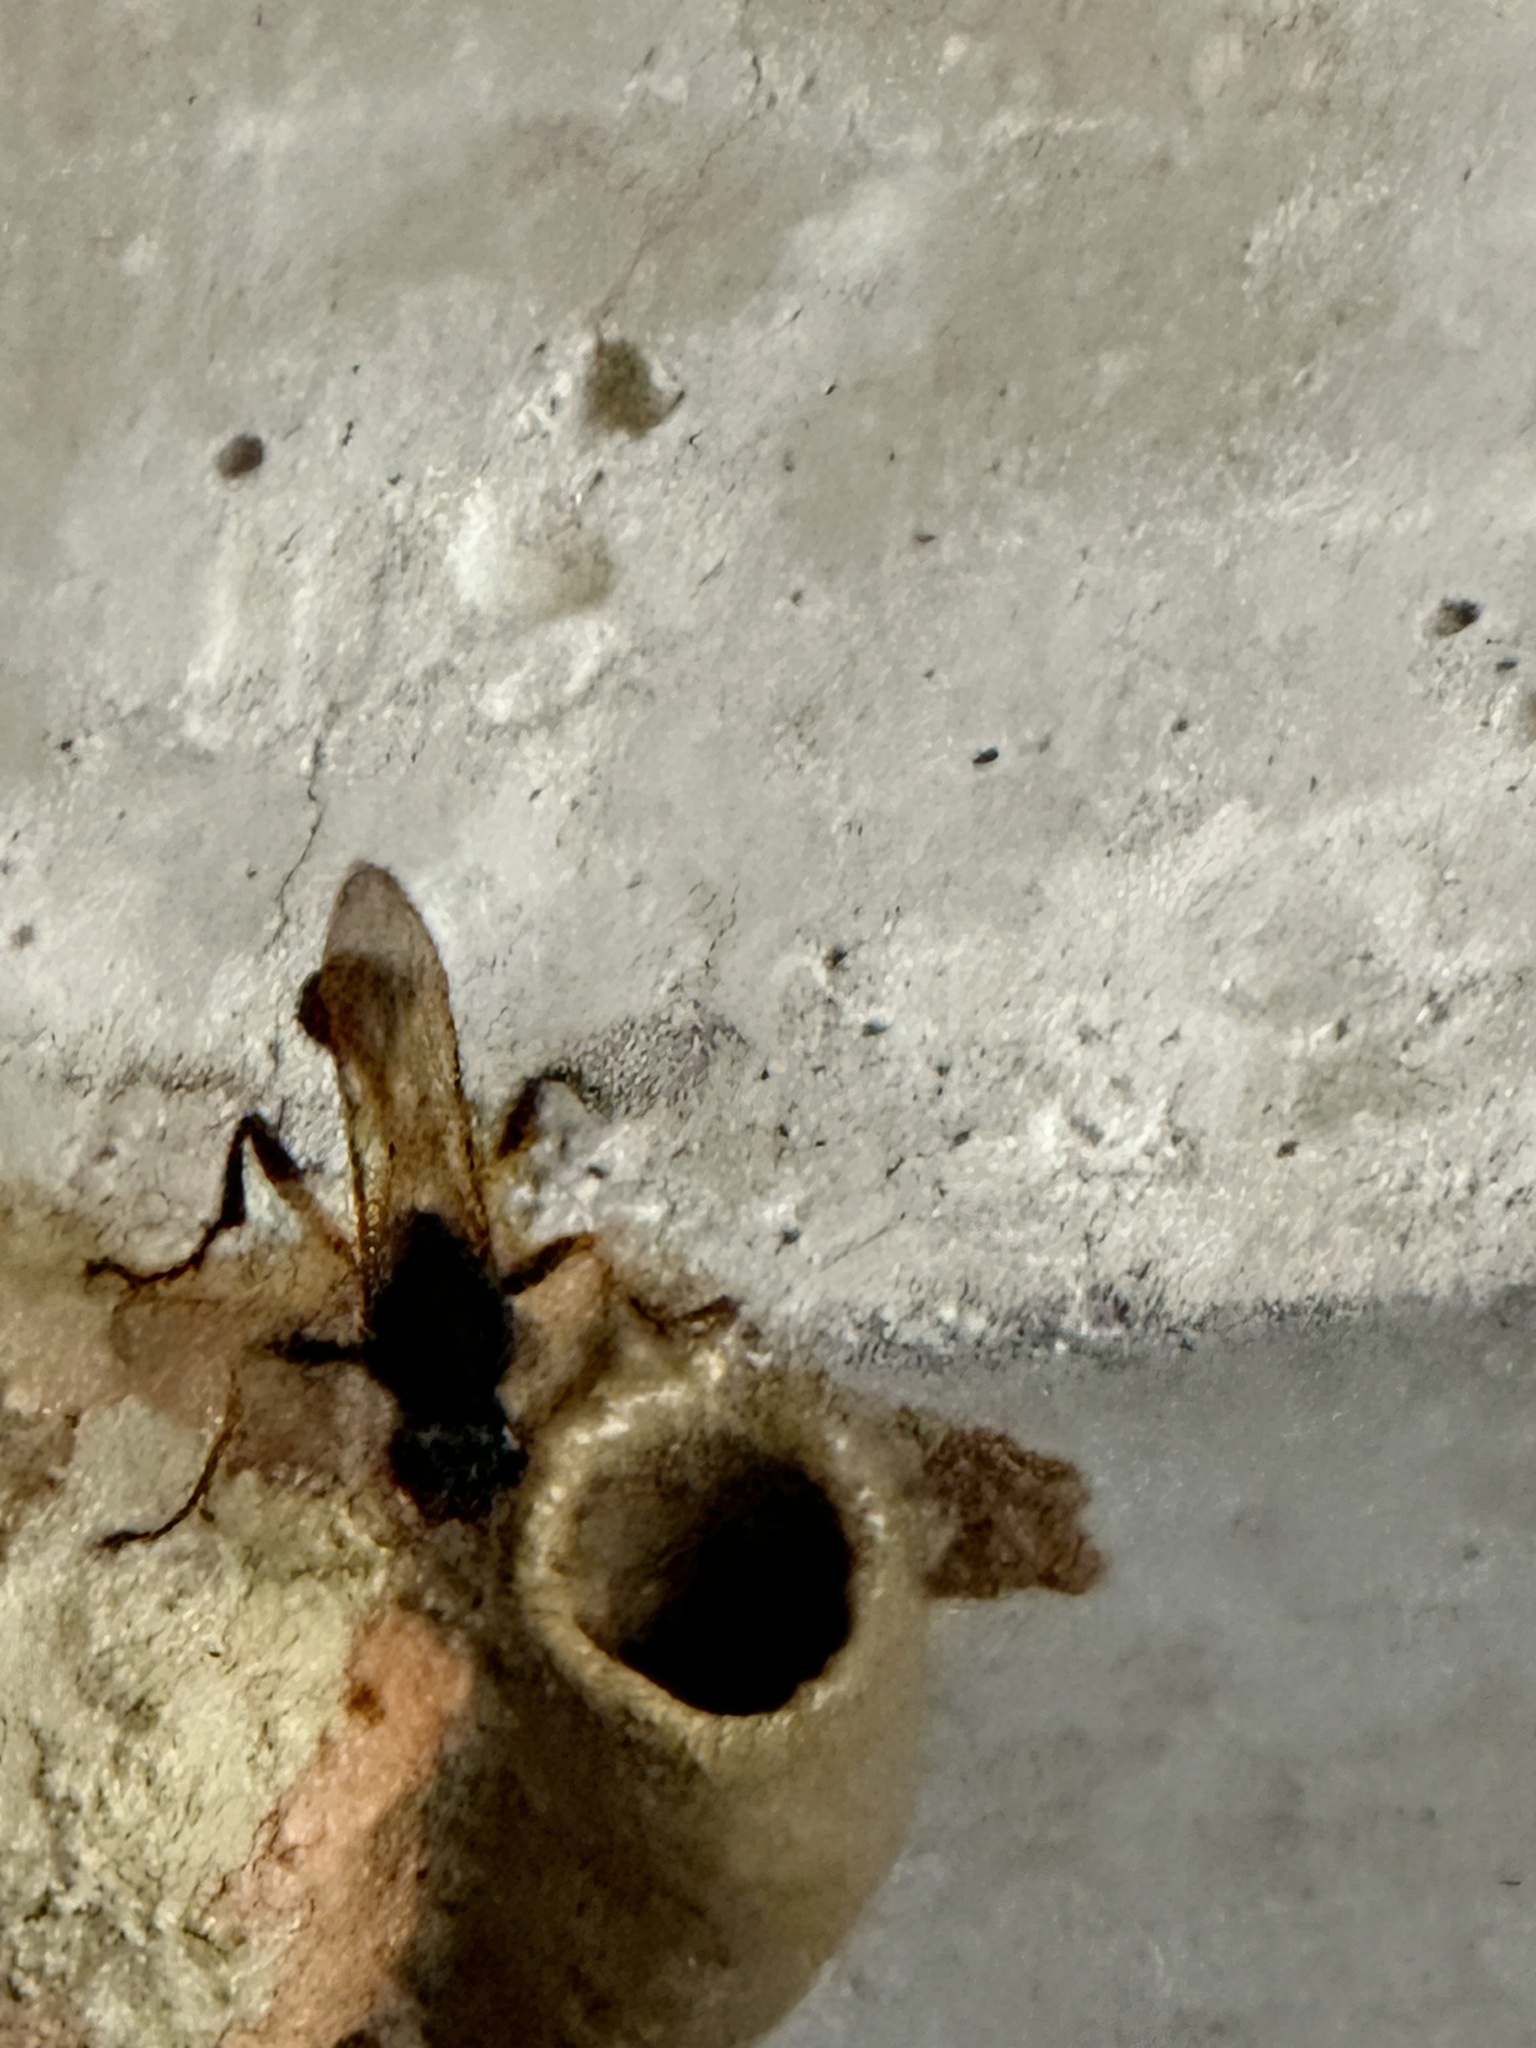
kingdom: Animalia
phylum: Arthropoda
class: Insecta
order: Hymenoptera
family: Sphecidae
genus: Sceliphron
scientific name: Sceliphron javanum
